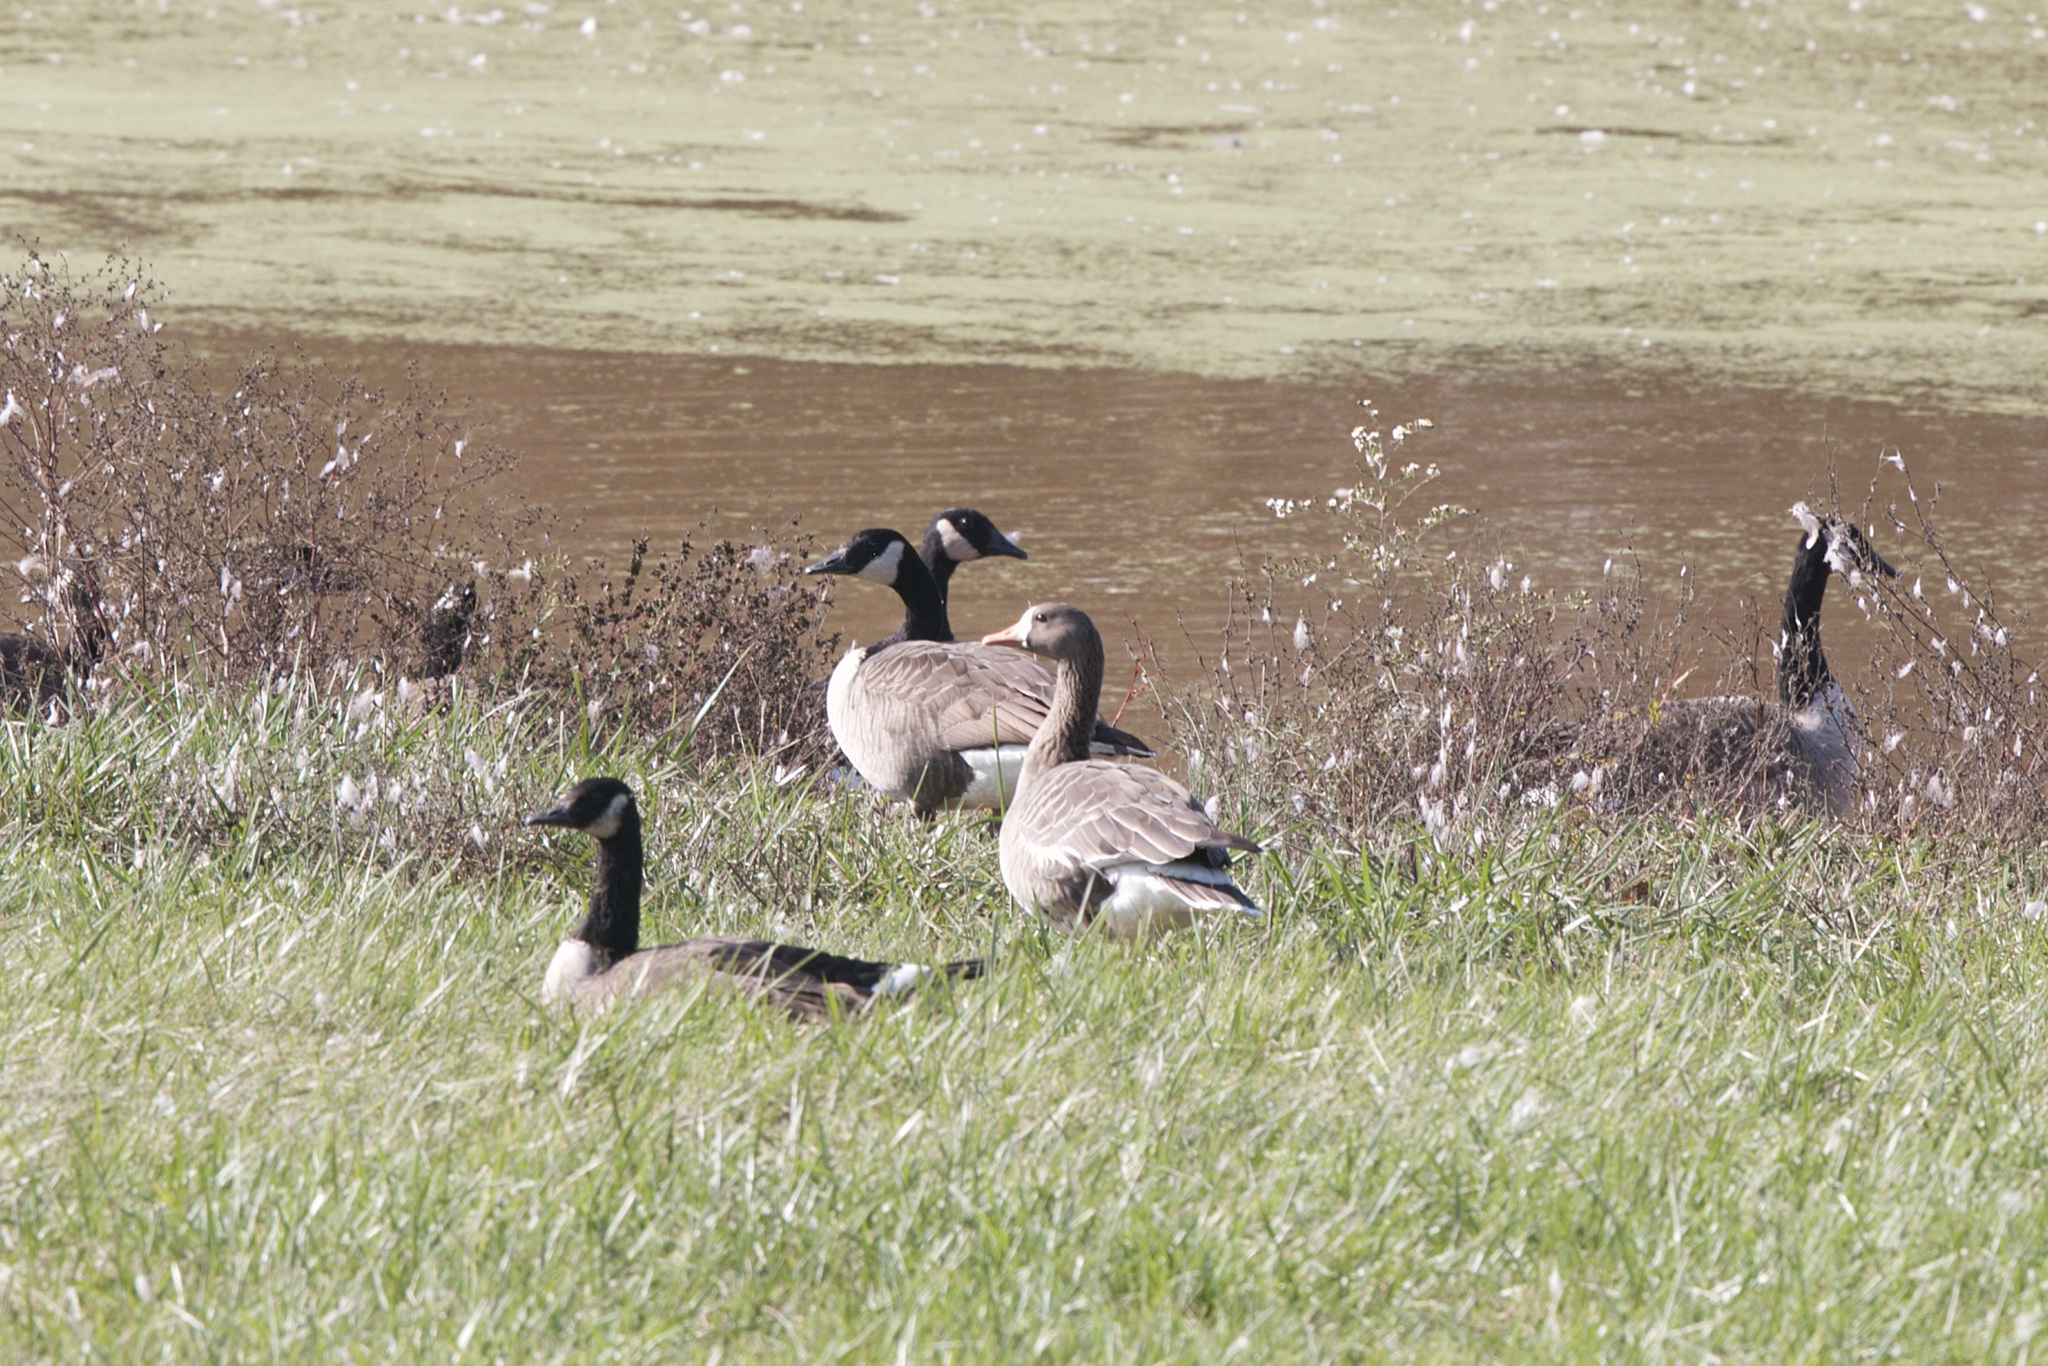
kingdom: Animalia
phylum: Chordata
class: Aves
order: Anseriformes
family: Anatidae
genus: Anser
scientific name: Anser albifrons
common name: Greater white-fronted goose
